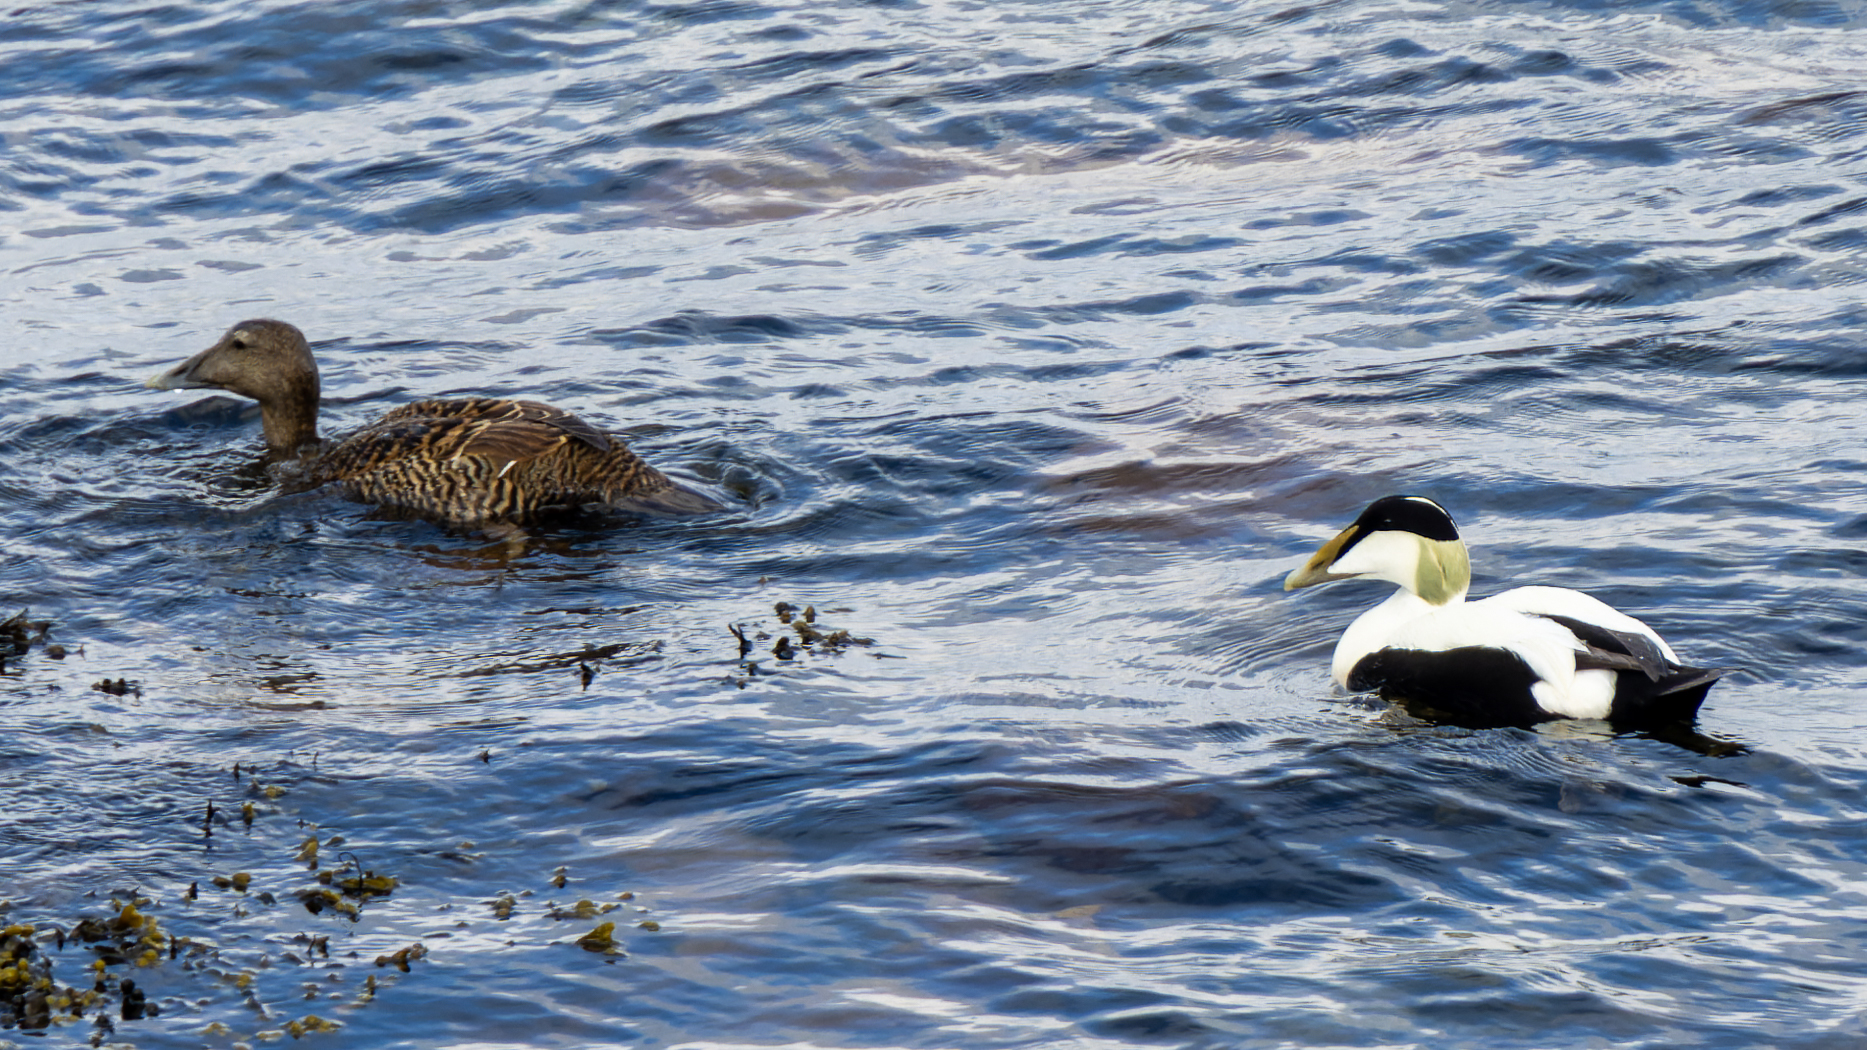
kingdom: Animalia
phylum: Chordata
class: Aves
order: Anseriformes
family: Anatidae
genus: Somateria
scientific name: Somateria mollissima
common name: Common eider
